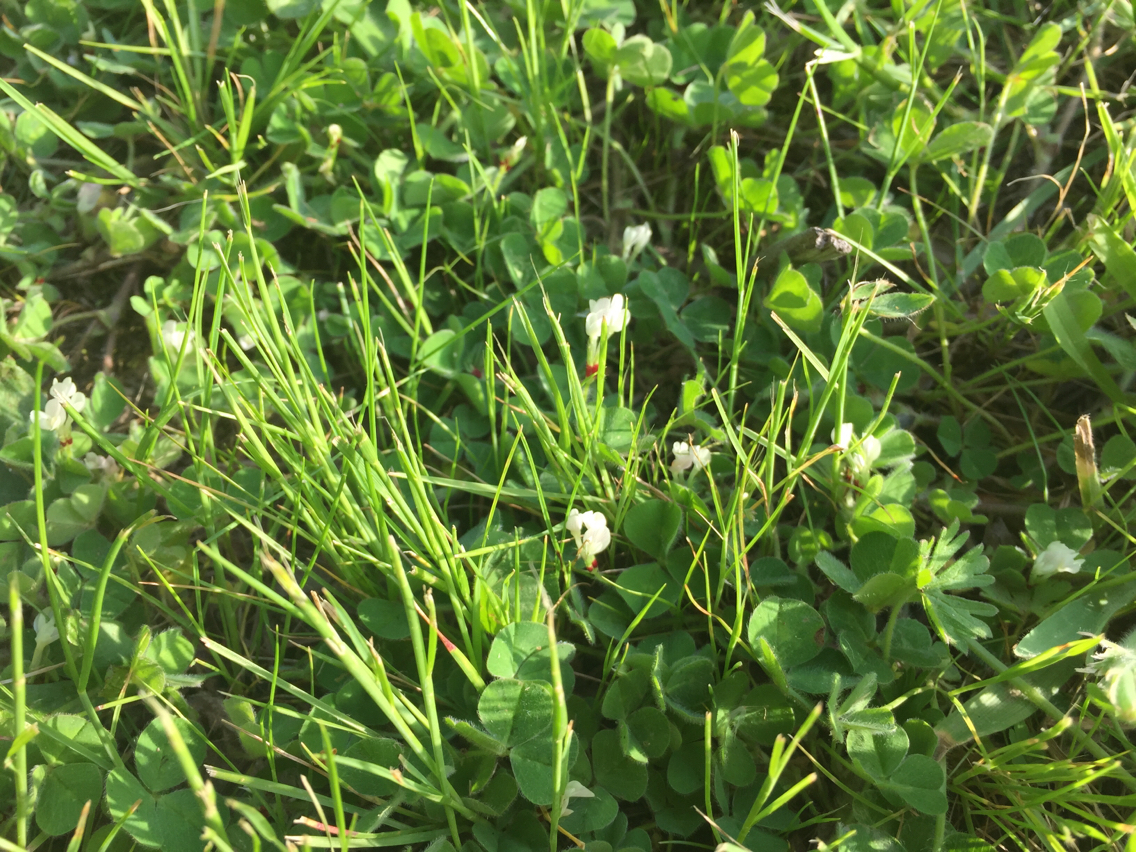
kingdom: Plantae
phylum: Tracheophyta
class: Magnoliopsida
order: Fabales
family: Fabaceae
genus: Trifolium
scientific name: Trifolium subterraneum
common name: Subterranean clover
